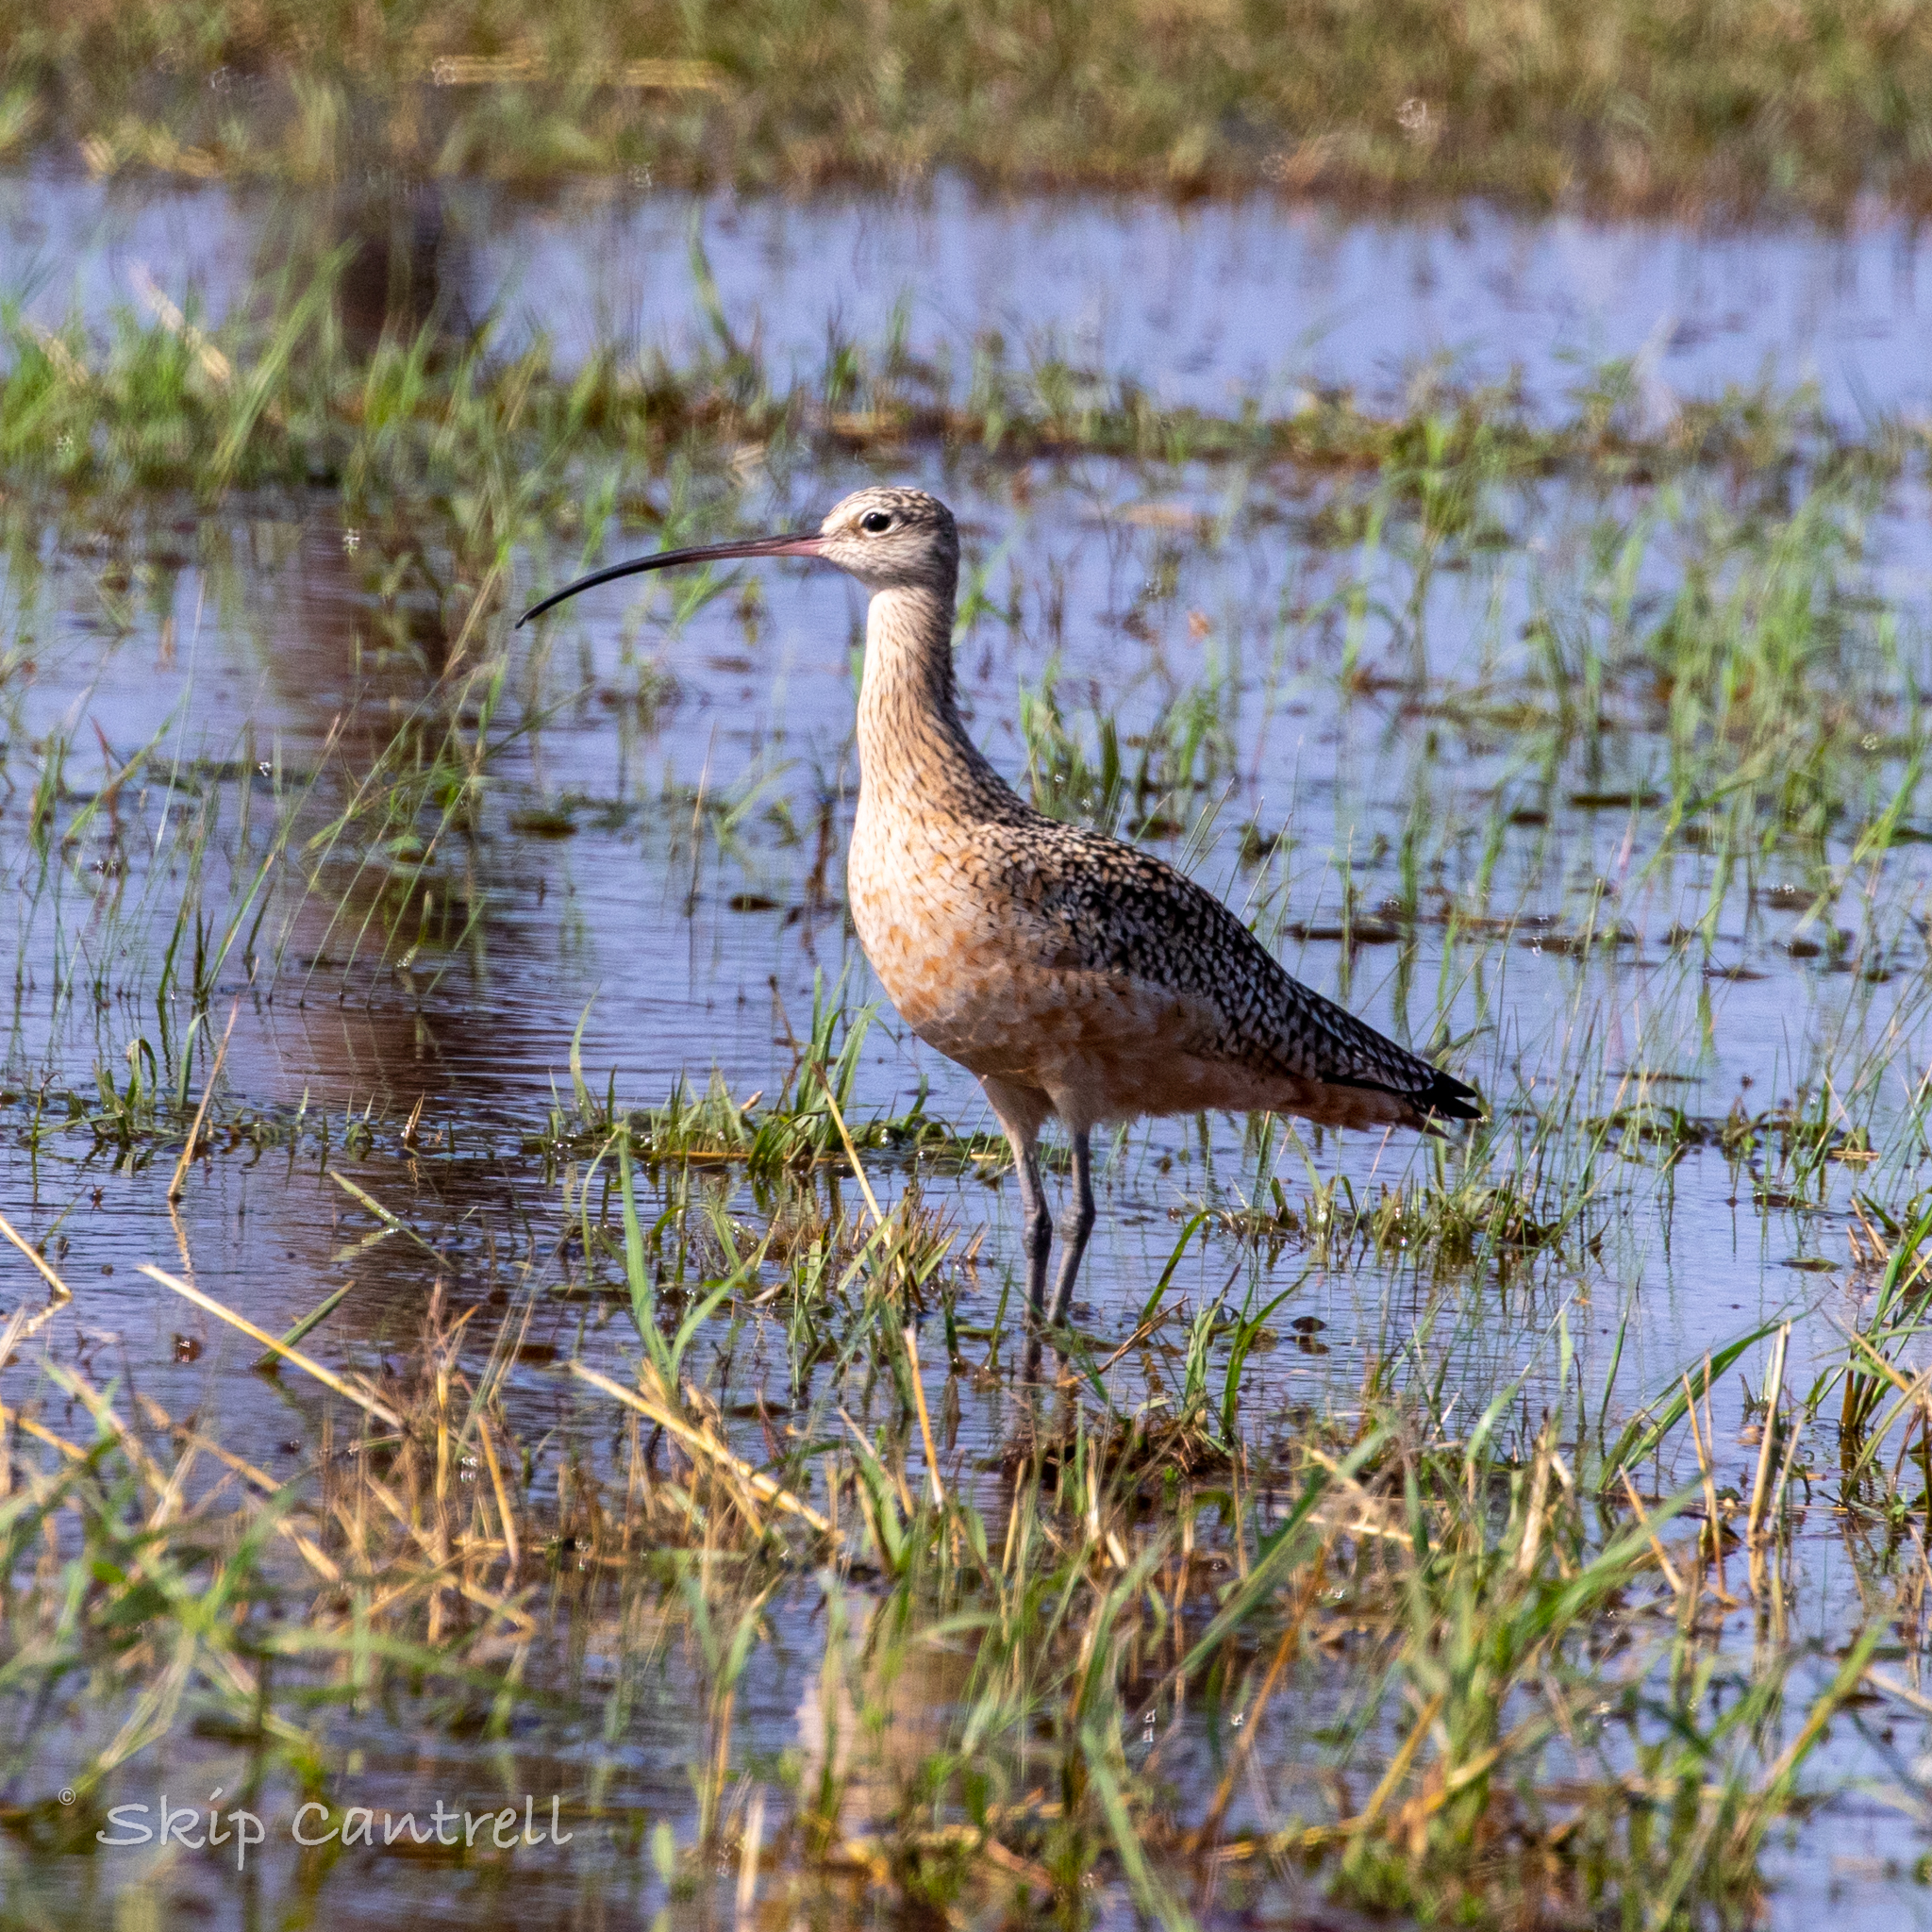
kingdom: Animalia
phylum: Chordata
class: Aves
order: Charadriiformes
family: Scolopacidae
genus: Numenius
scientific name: Numenius americanus
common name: Long-billed curlew
